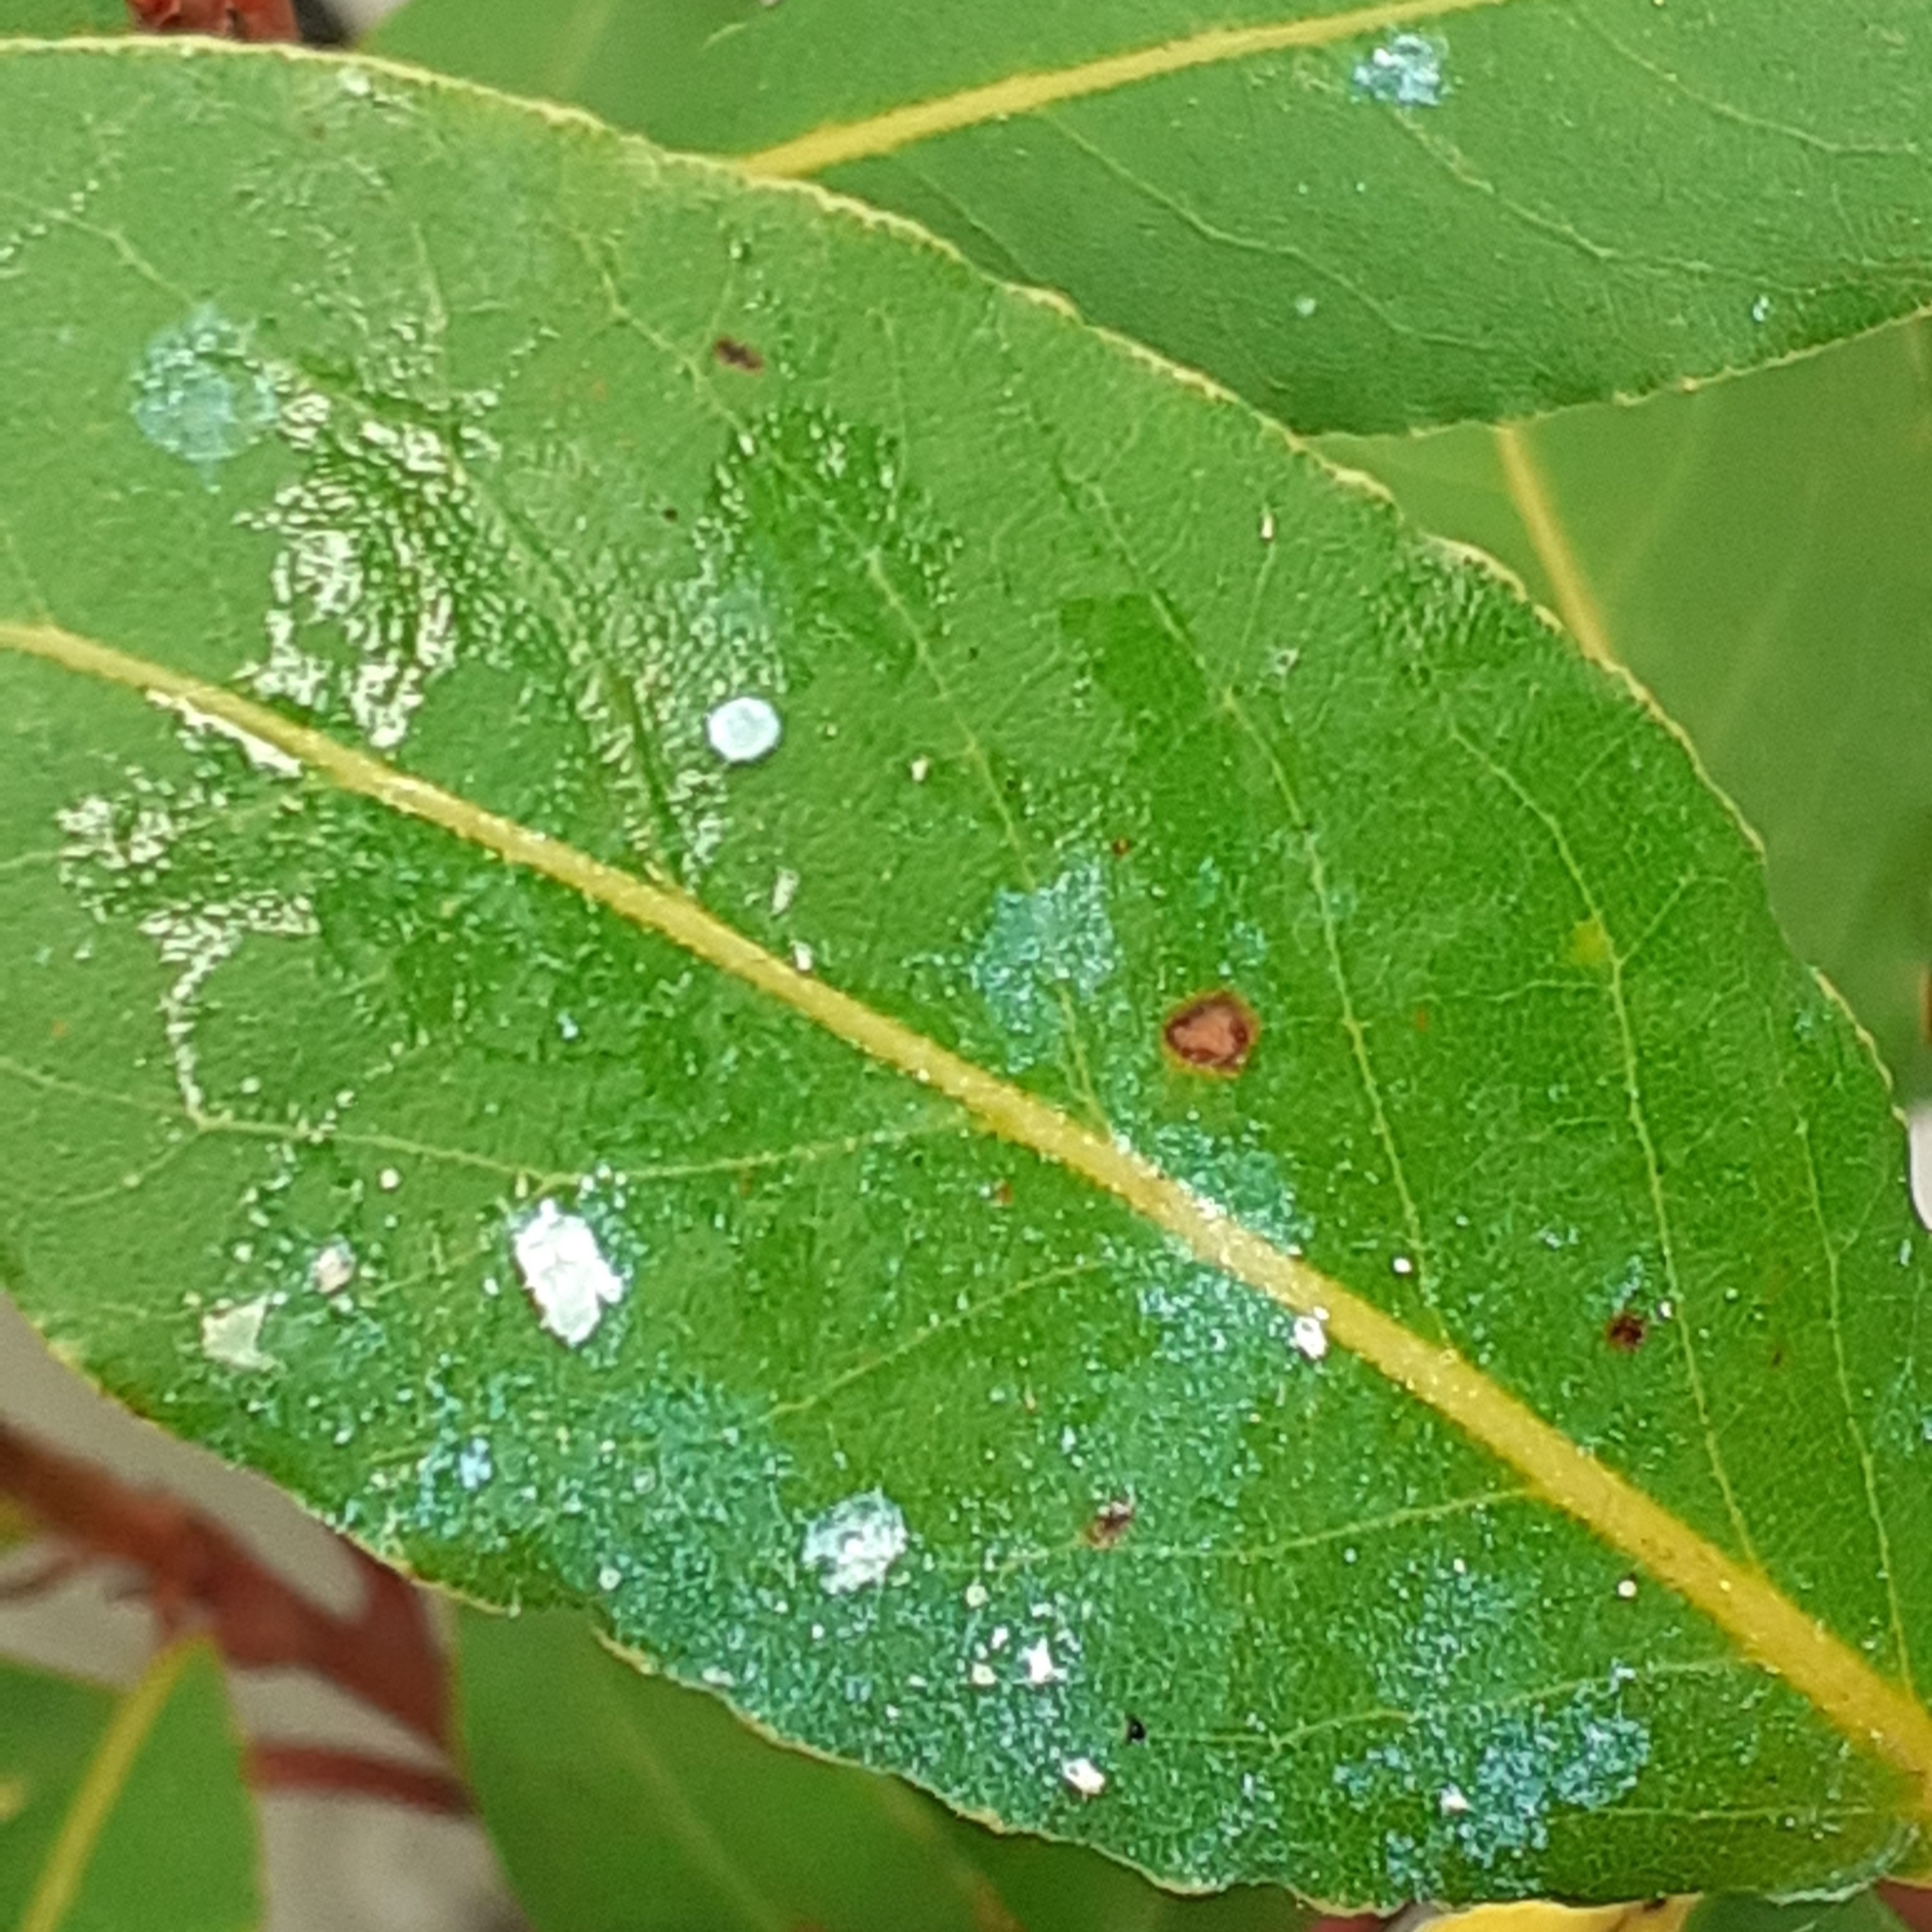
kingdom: Animalia
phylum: Arthropoda
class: Insecta
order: Hemiptera
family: Triozidae
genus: Lauritrioza
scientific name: Lauritrioza alacris
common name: Laurel psyllid
